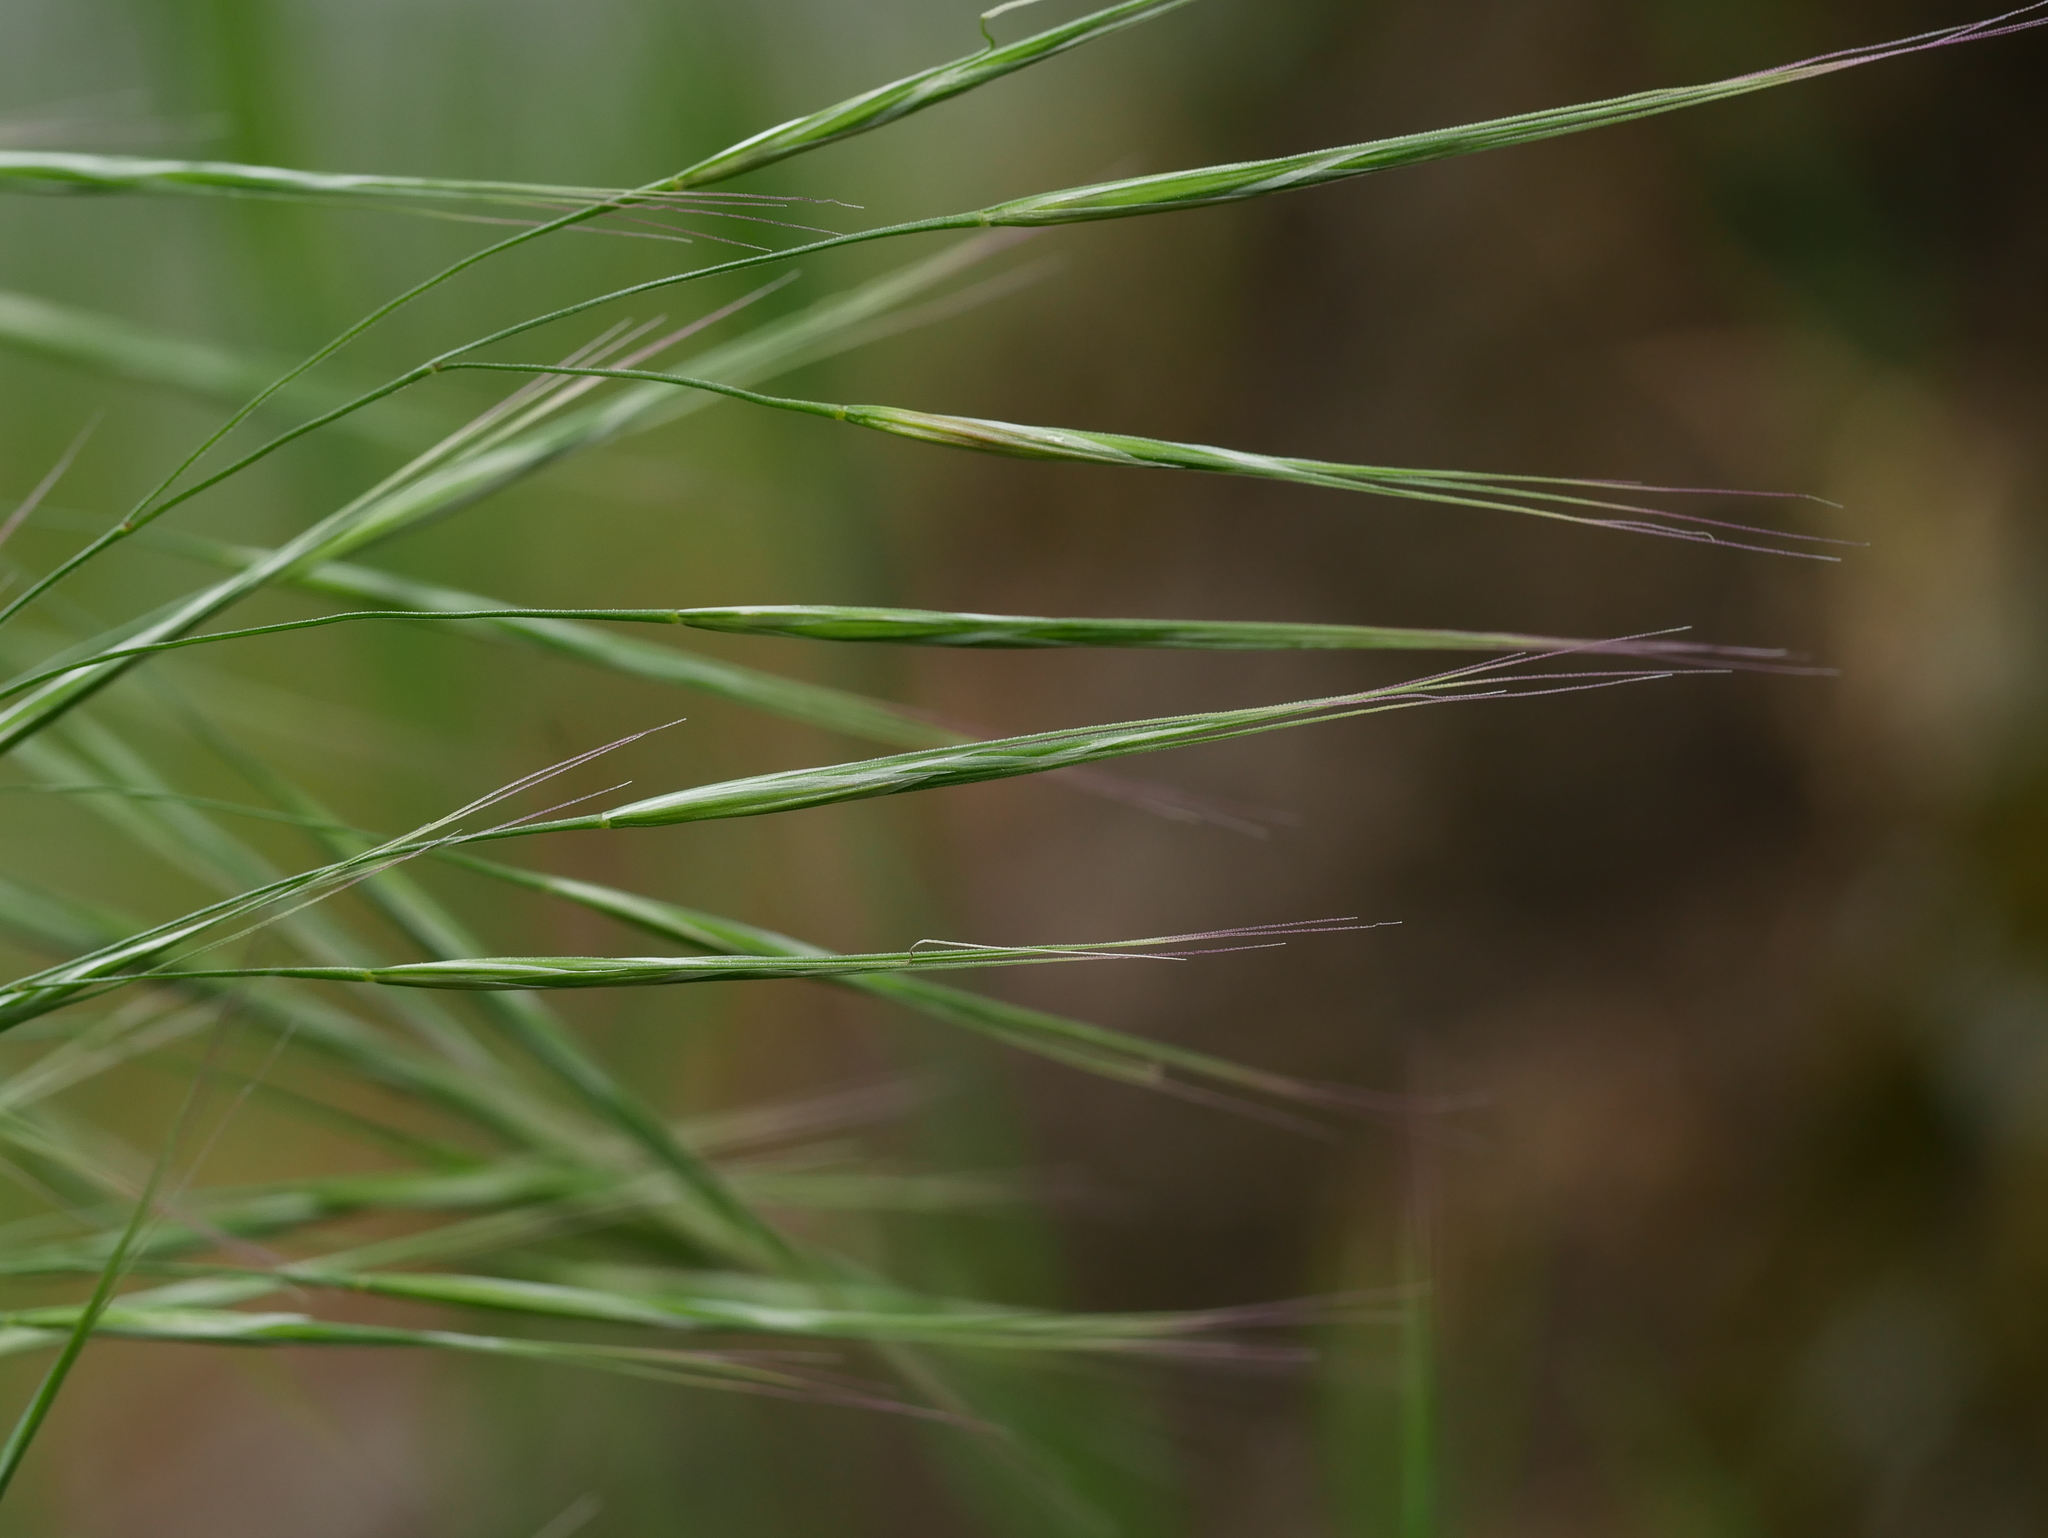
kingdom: Plantae
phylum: Tracheophyta
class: Liliopsida
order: Poales
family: Poaceae
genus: Bromus
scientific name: Bromus sterilis
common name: Poverty brome
